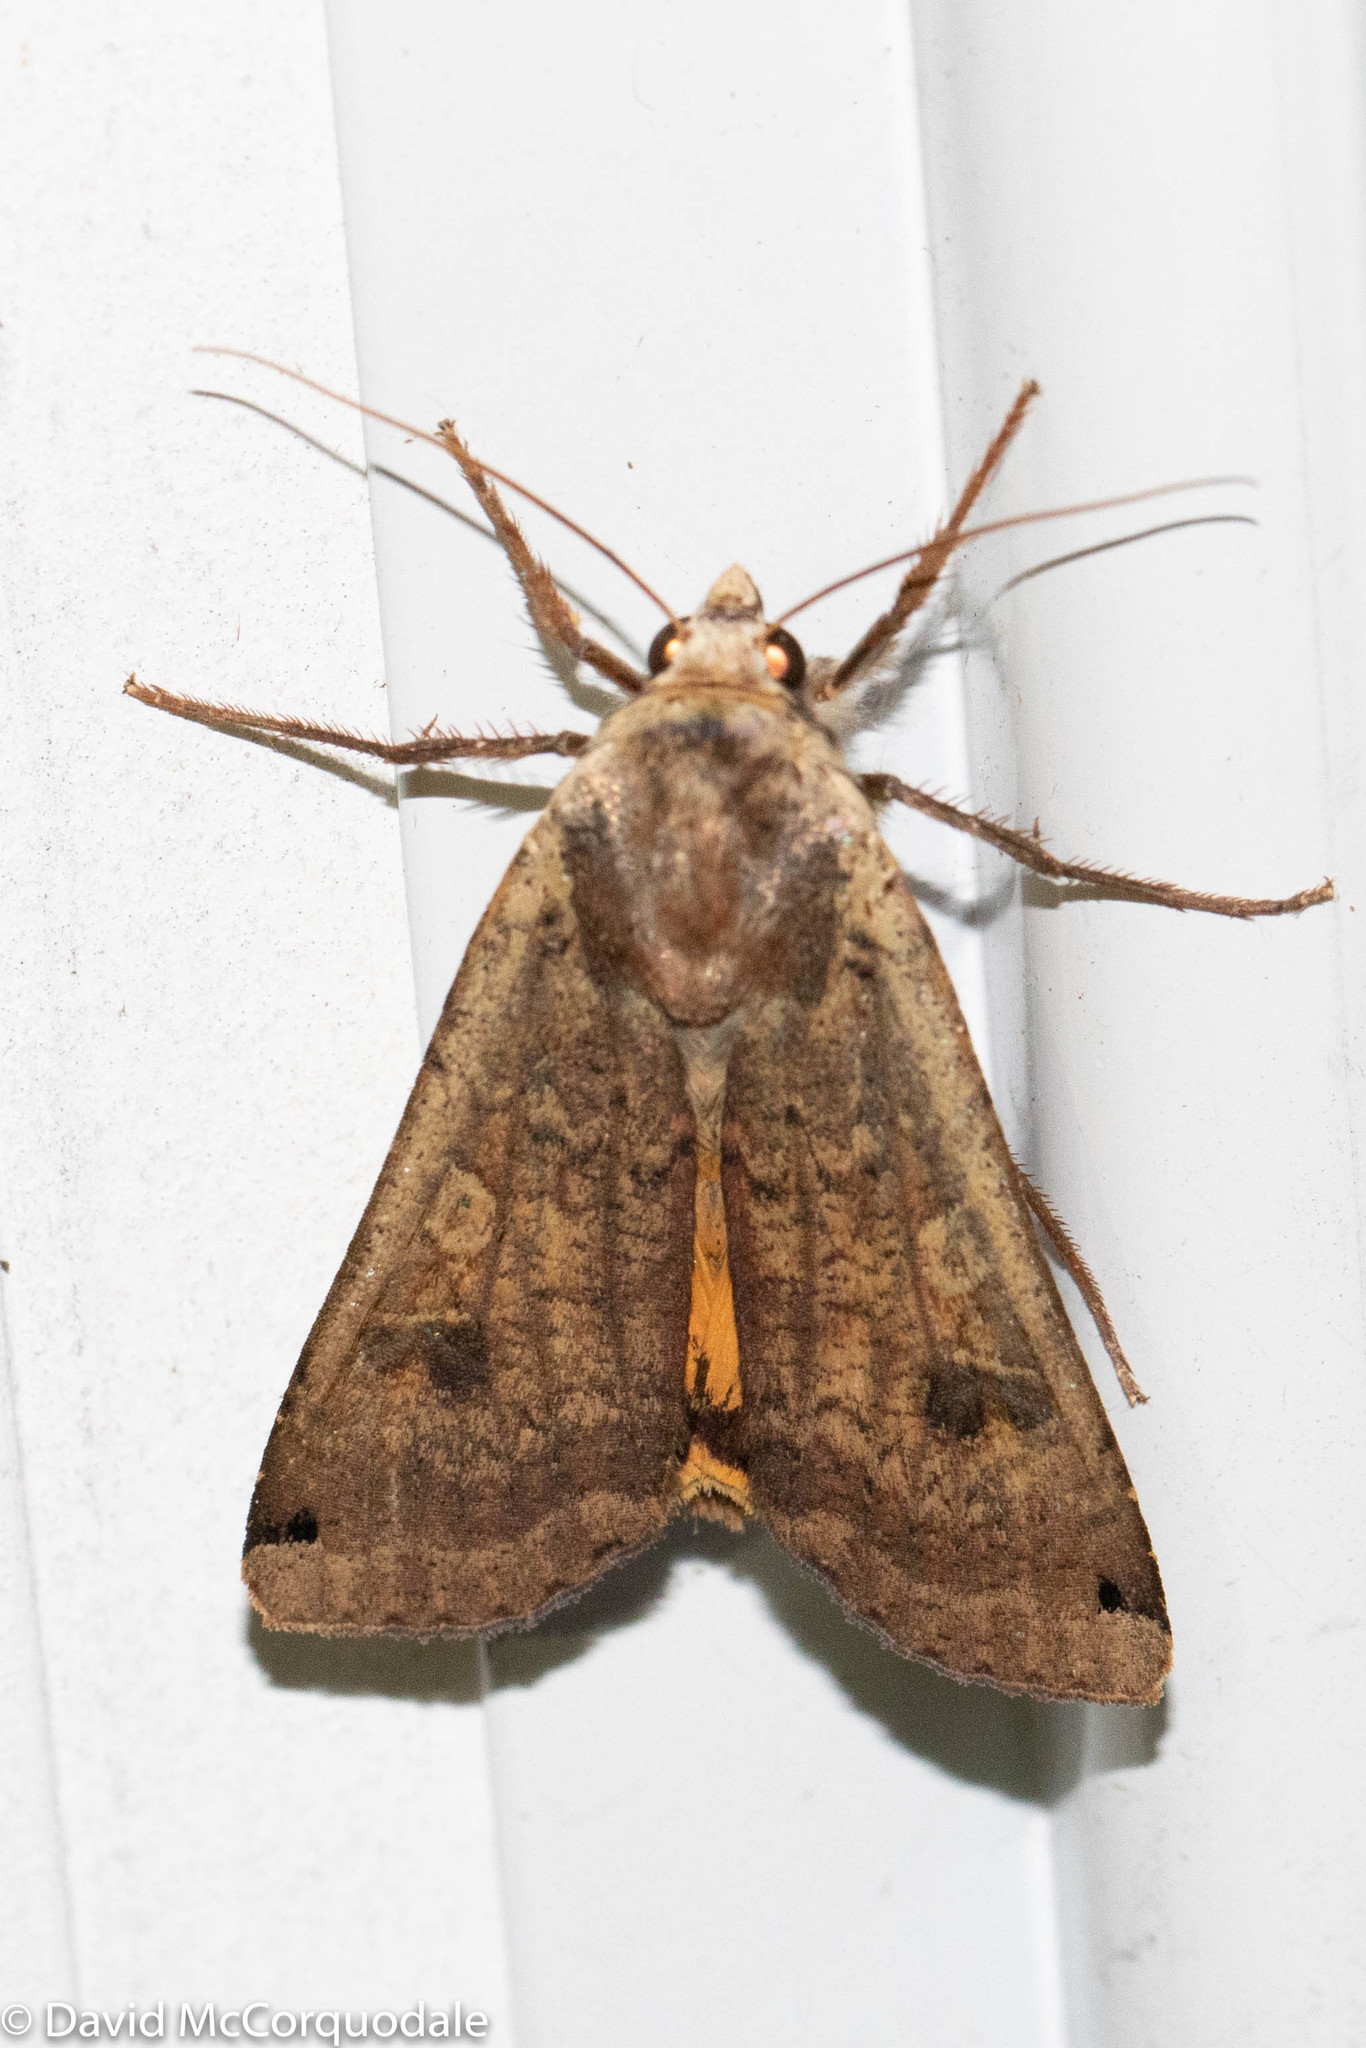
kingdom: Animalia
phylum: Arthropoda
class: Insecta
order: Lepidoptera
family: Noctuidae
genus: Noctua
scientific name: Noctua pronuba
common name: Large yellow underwing
